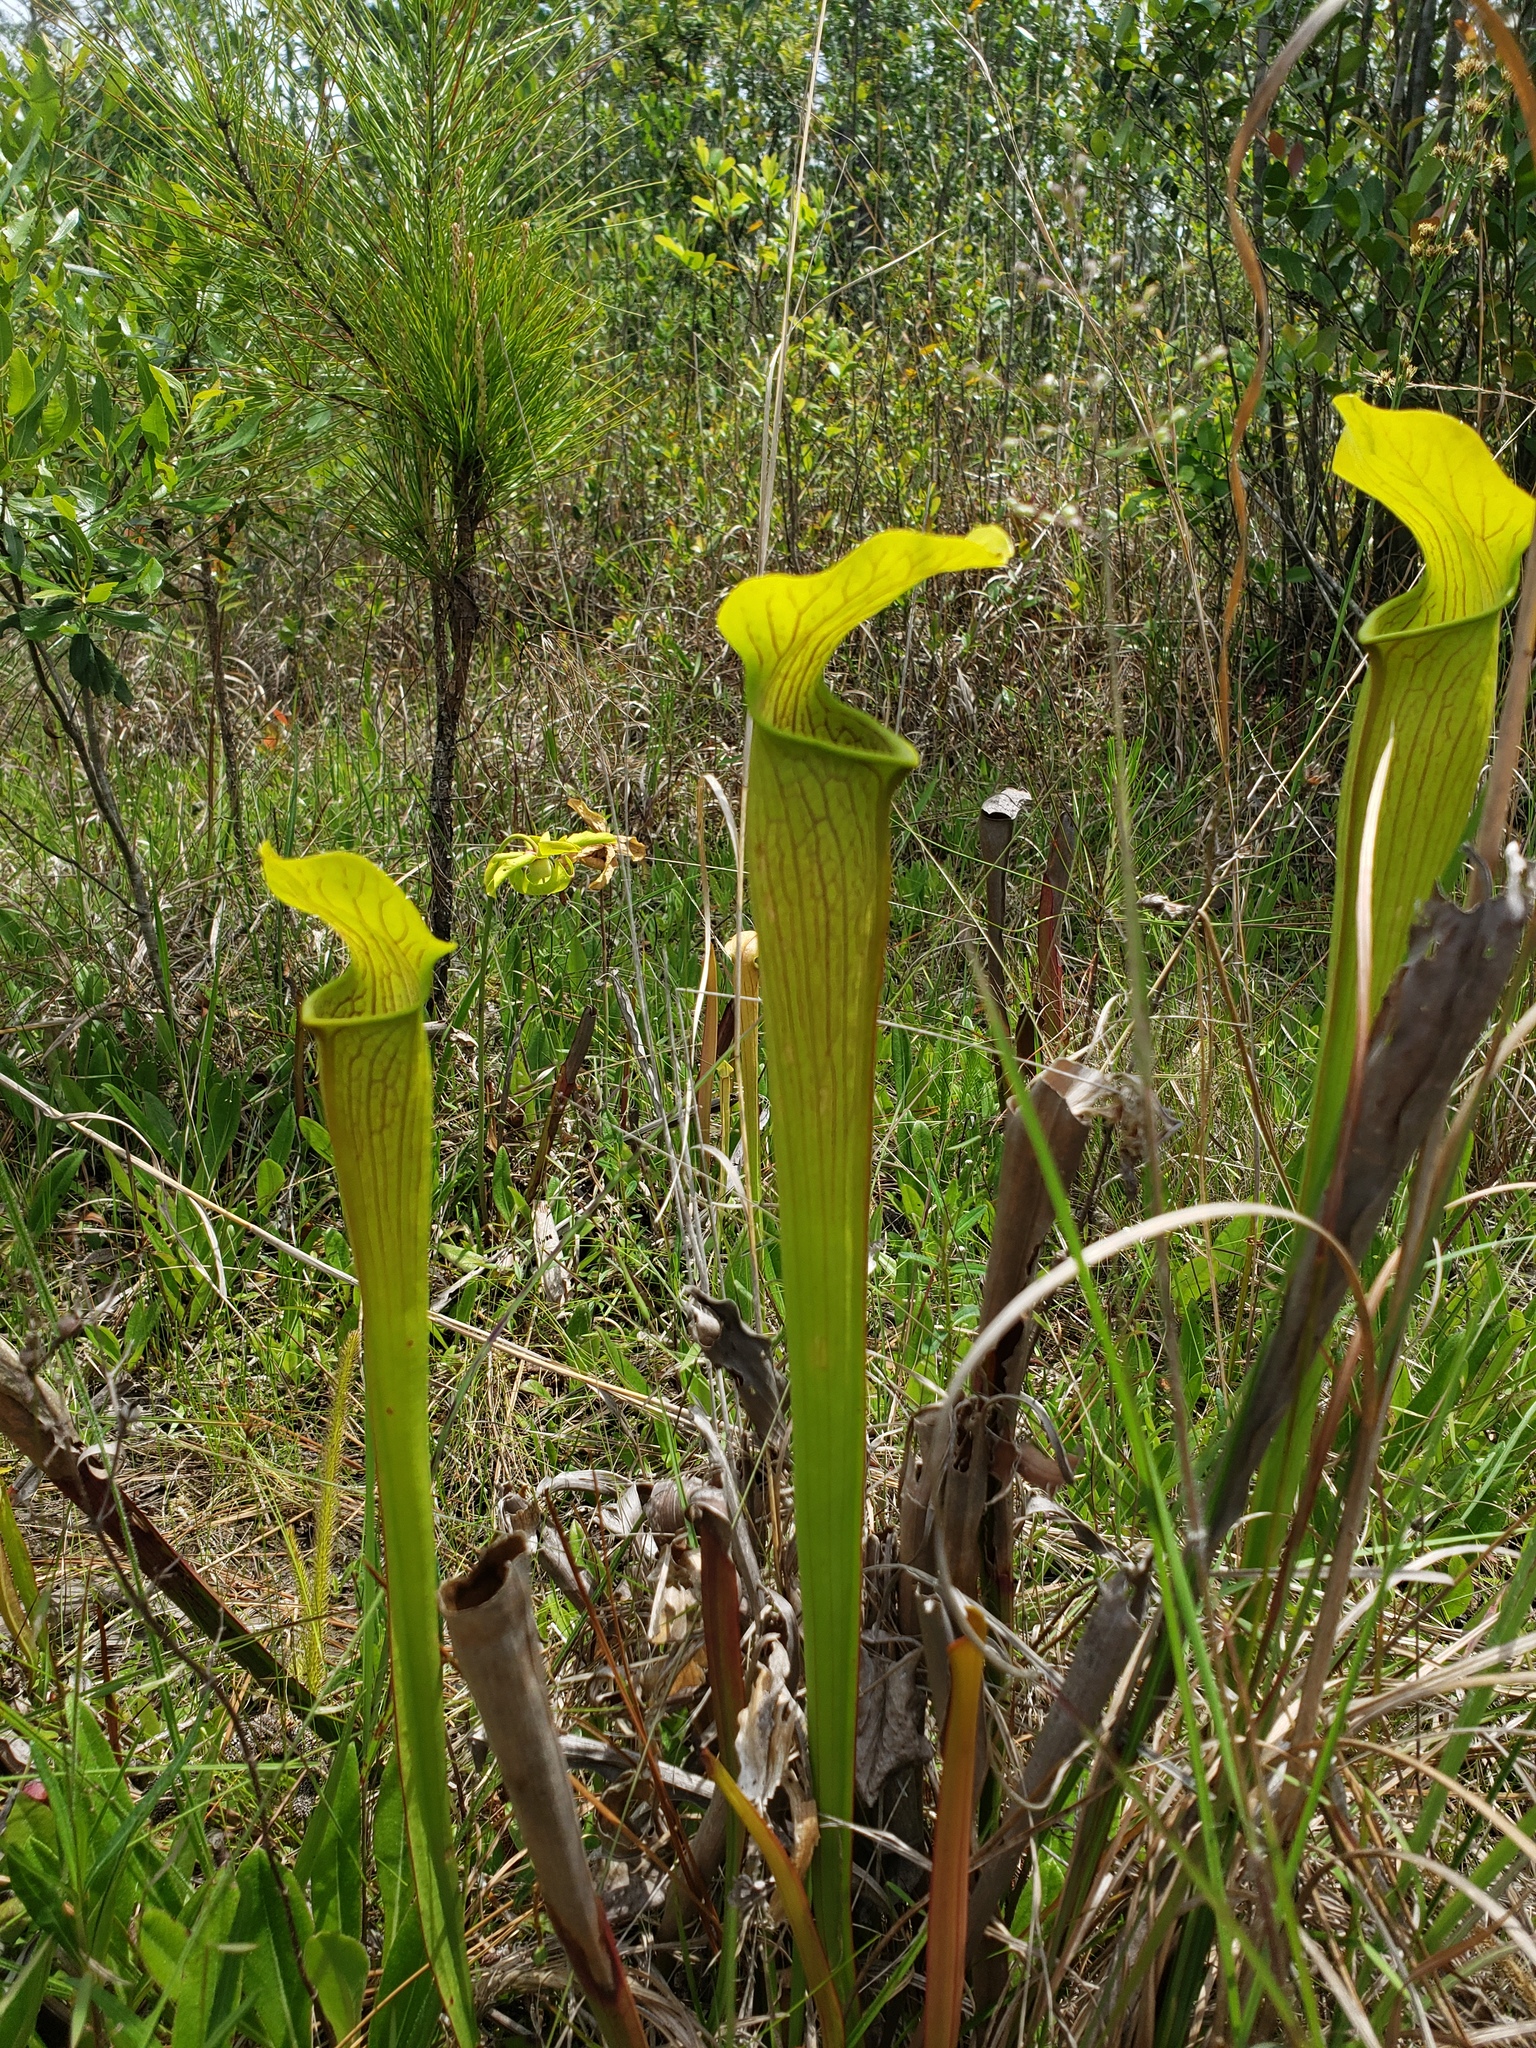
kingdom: Plantae
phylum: Tracheophyta
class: Magnoliopsida
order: Ericales
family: Sarraceniaceae
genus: Sarracenia
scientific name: Sarracenia alata
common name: Yellow trumpets
